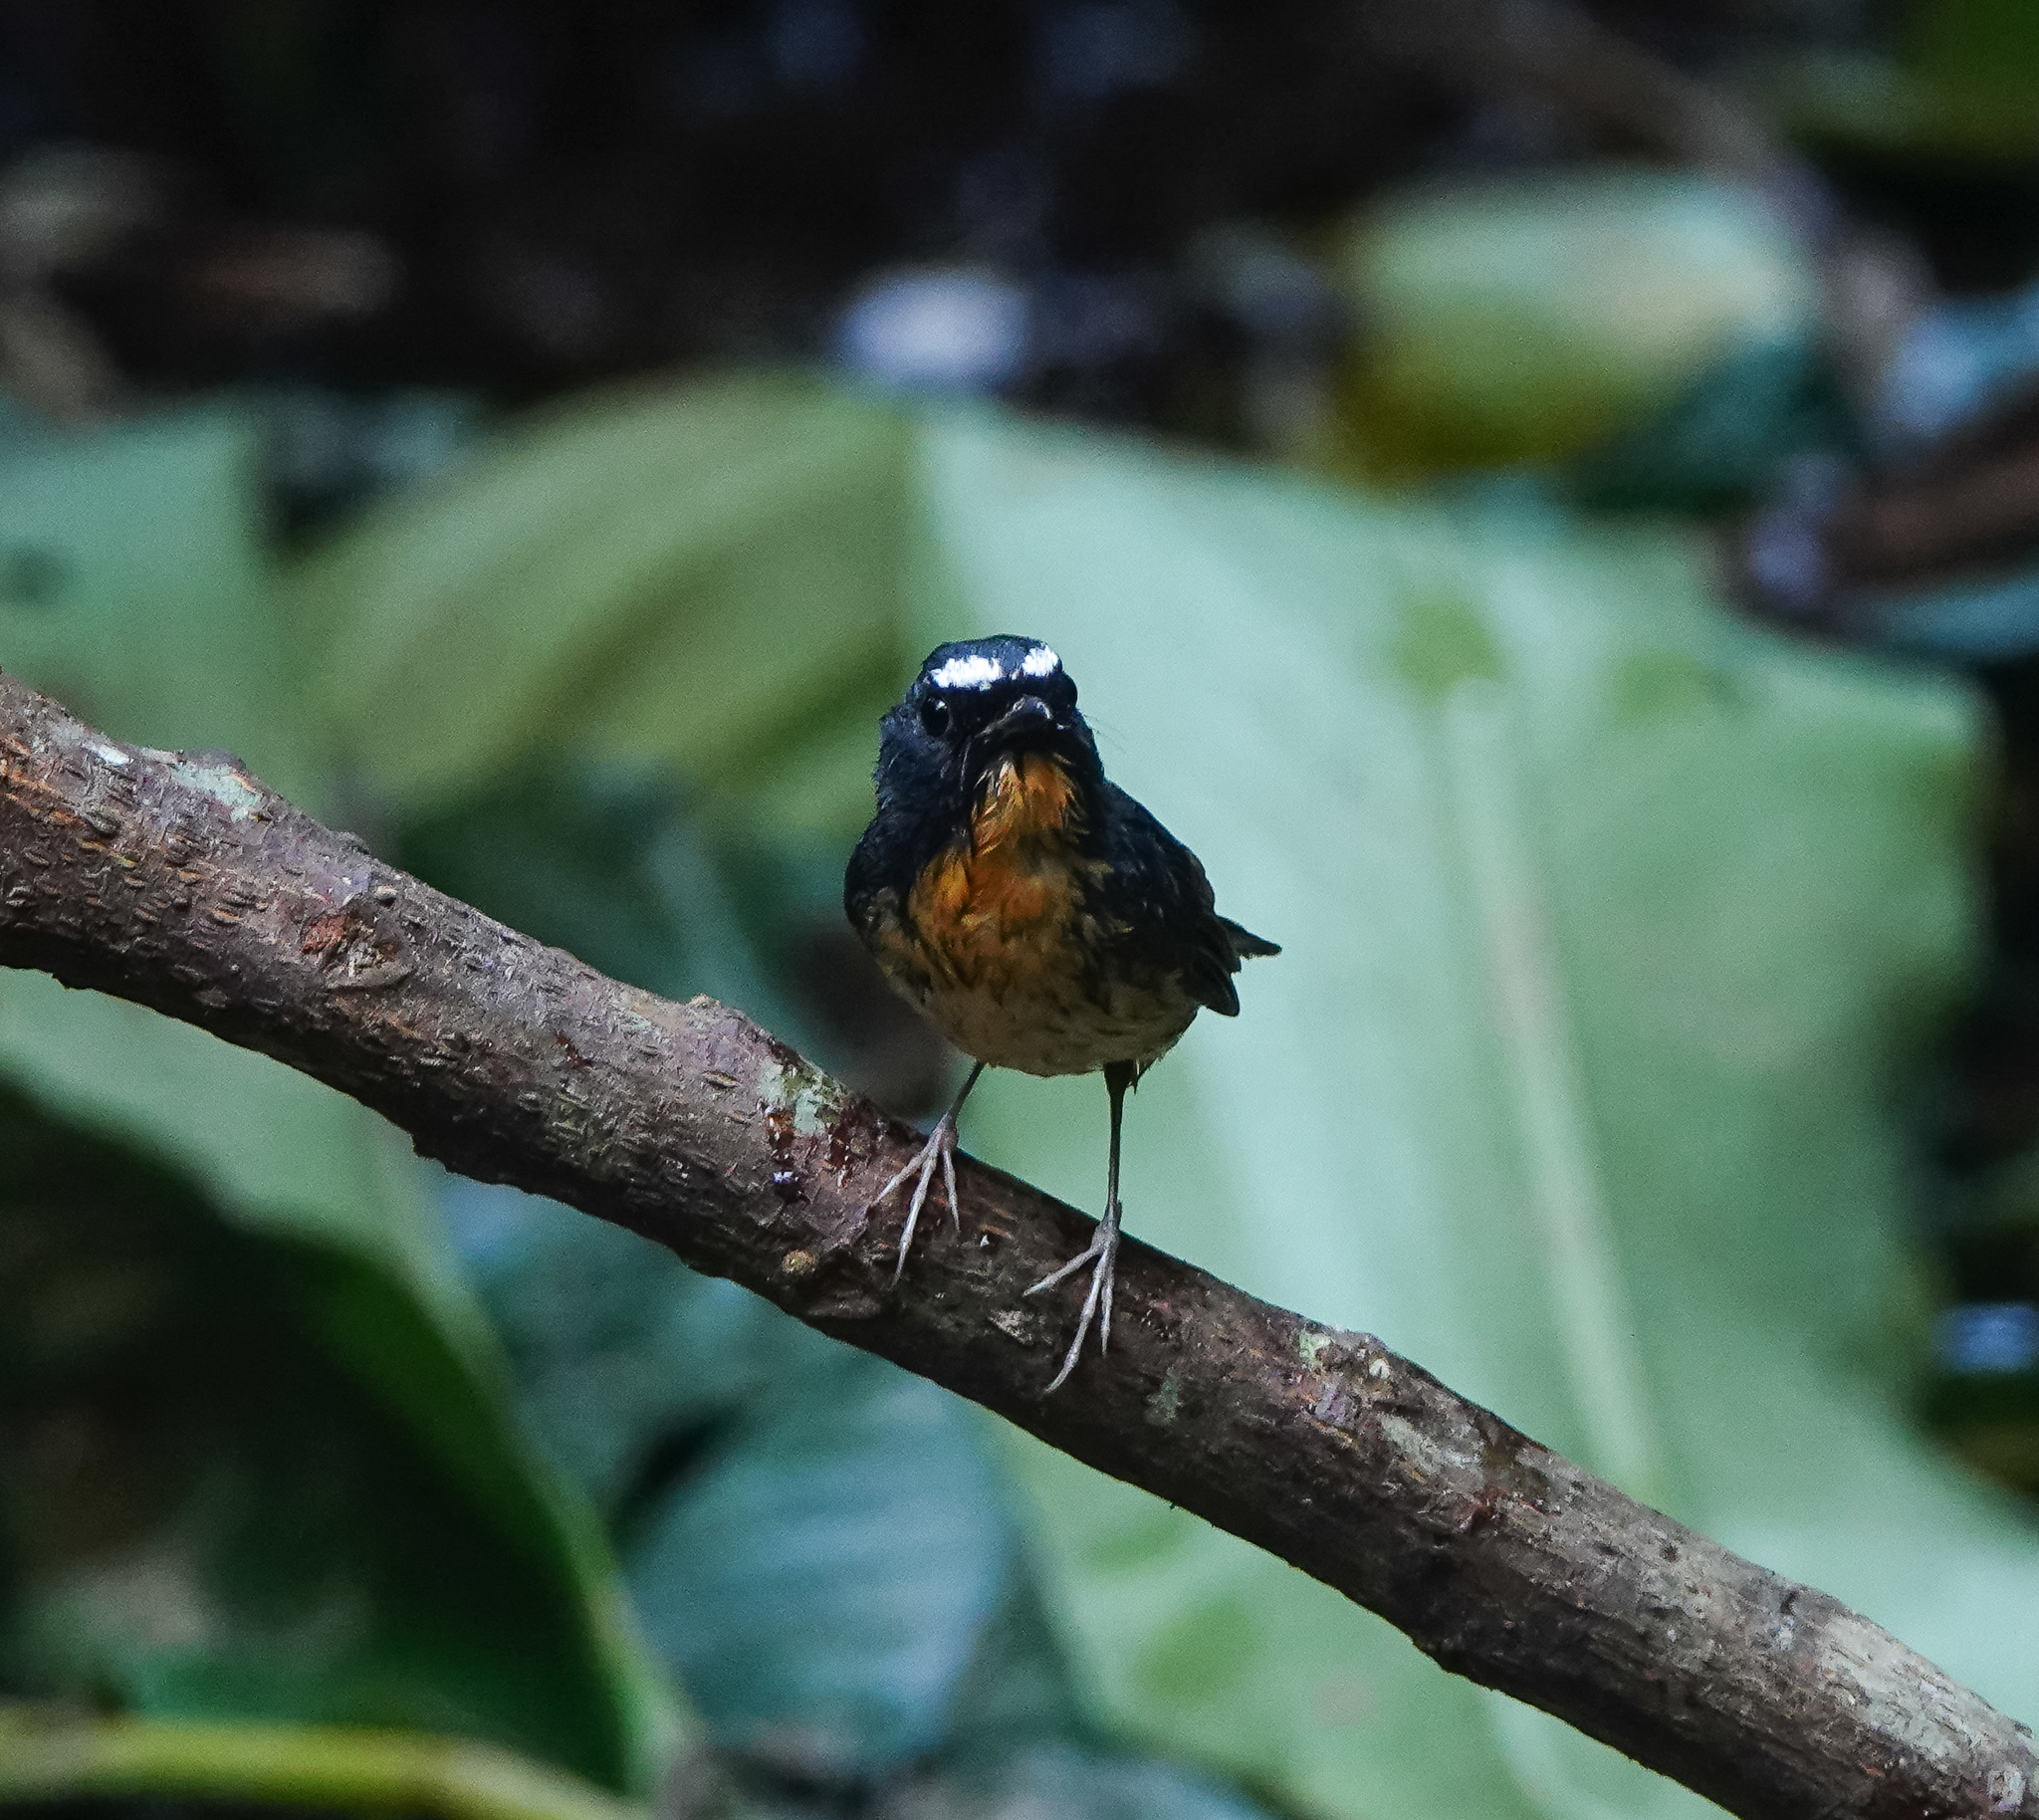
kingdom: Animalia
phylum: Chordata
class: Aves
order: Passeriformes
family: Muscicapidae
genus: Ficedula
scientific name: Ficedula hyperythra
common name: Snowy-browed flycatcher
